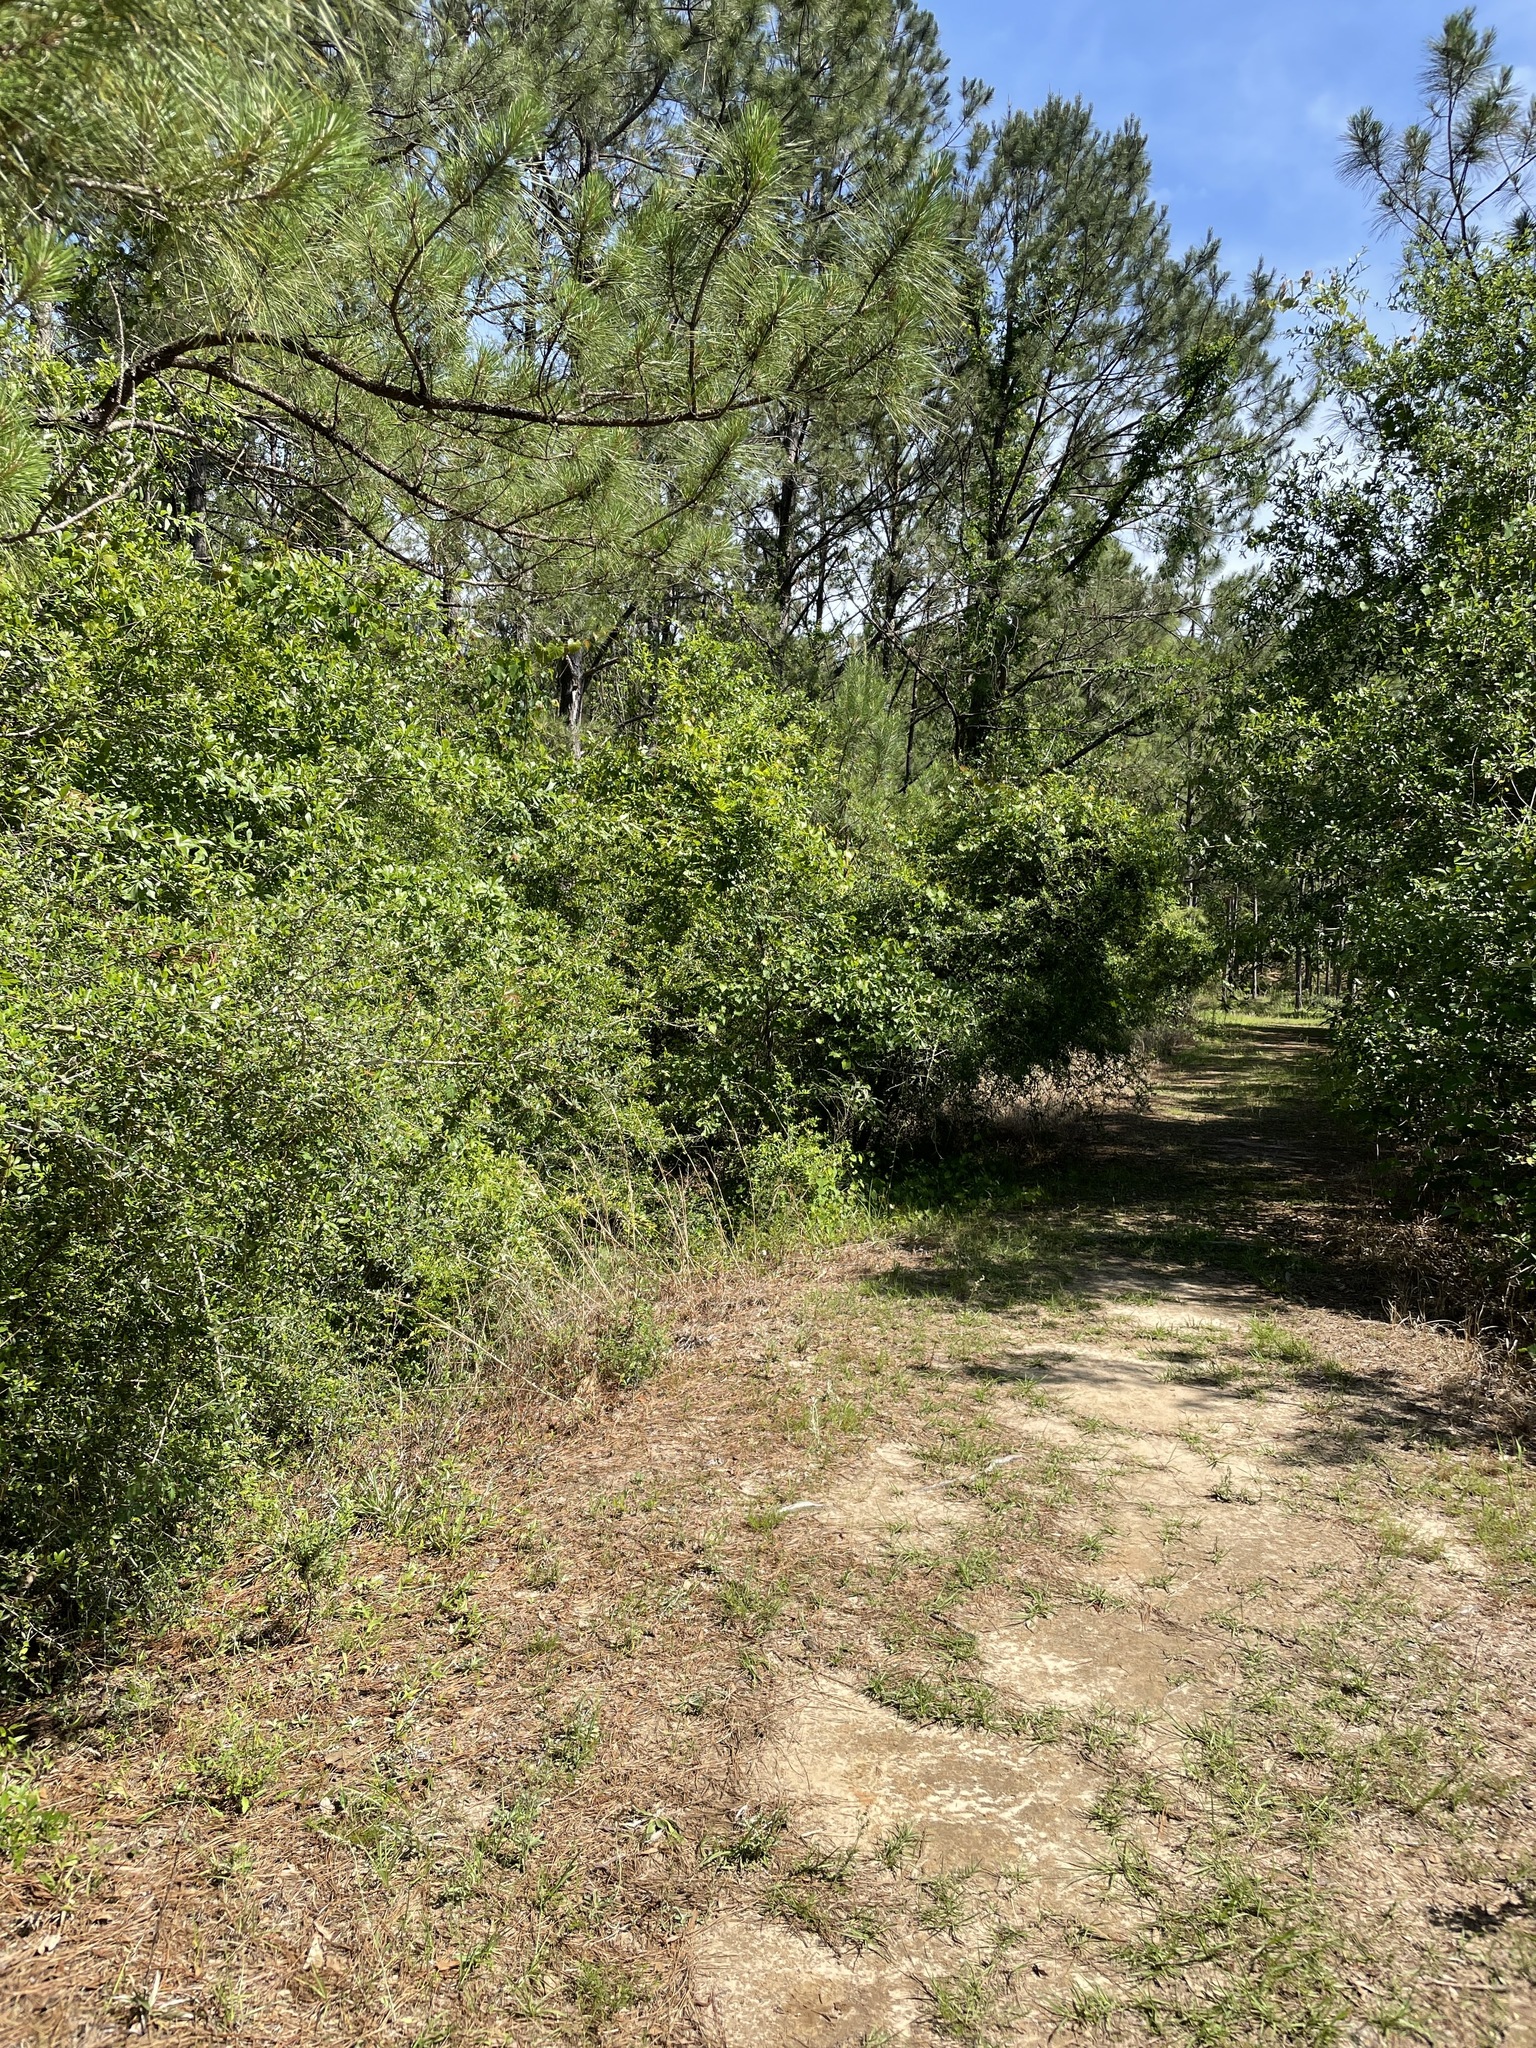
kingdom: Animalia
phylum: Chordata
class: Squamata
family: Teiidae
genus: Aspidoscelis
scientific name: Aspidoscelis sexlineatus
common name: Six-lined racerunner
